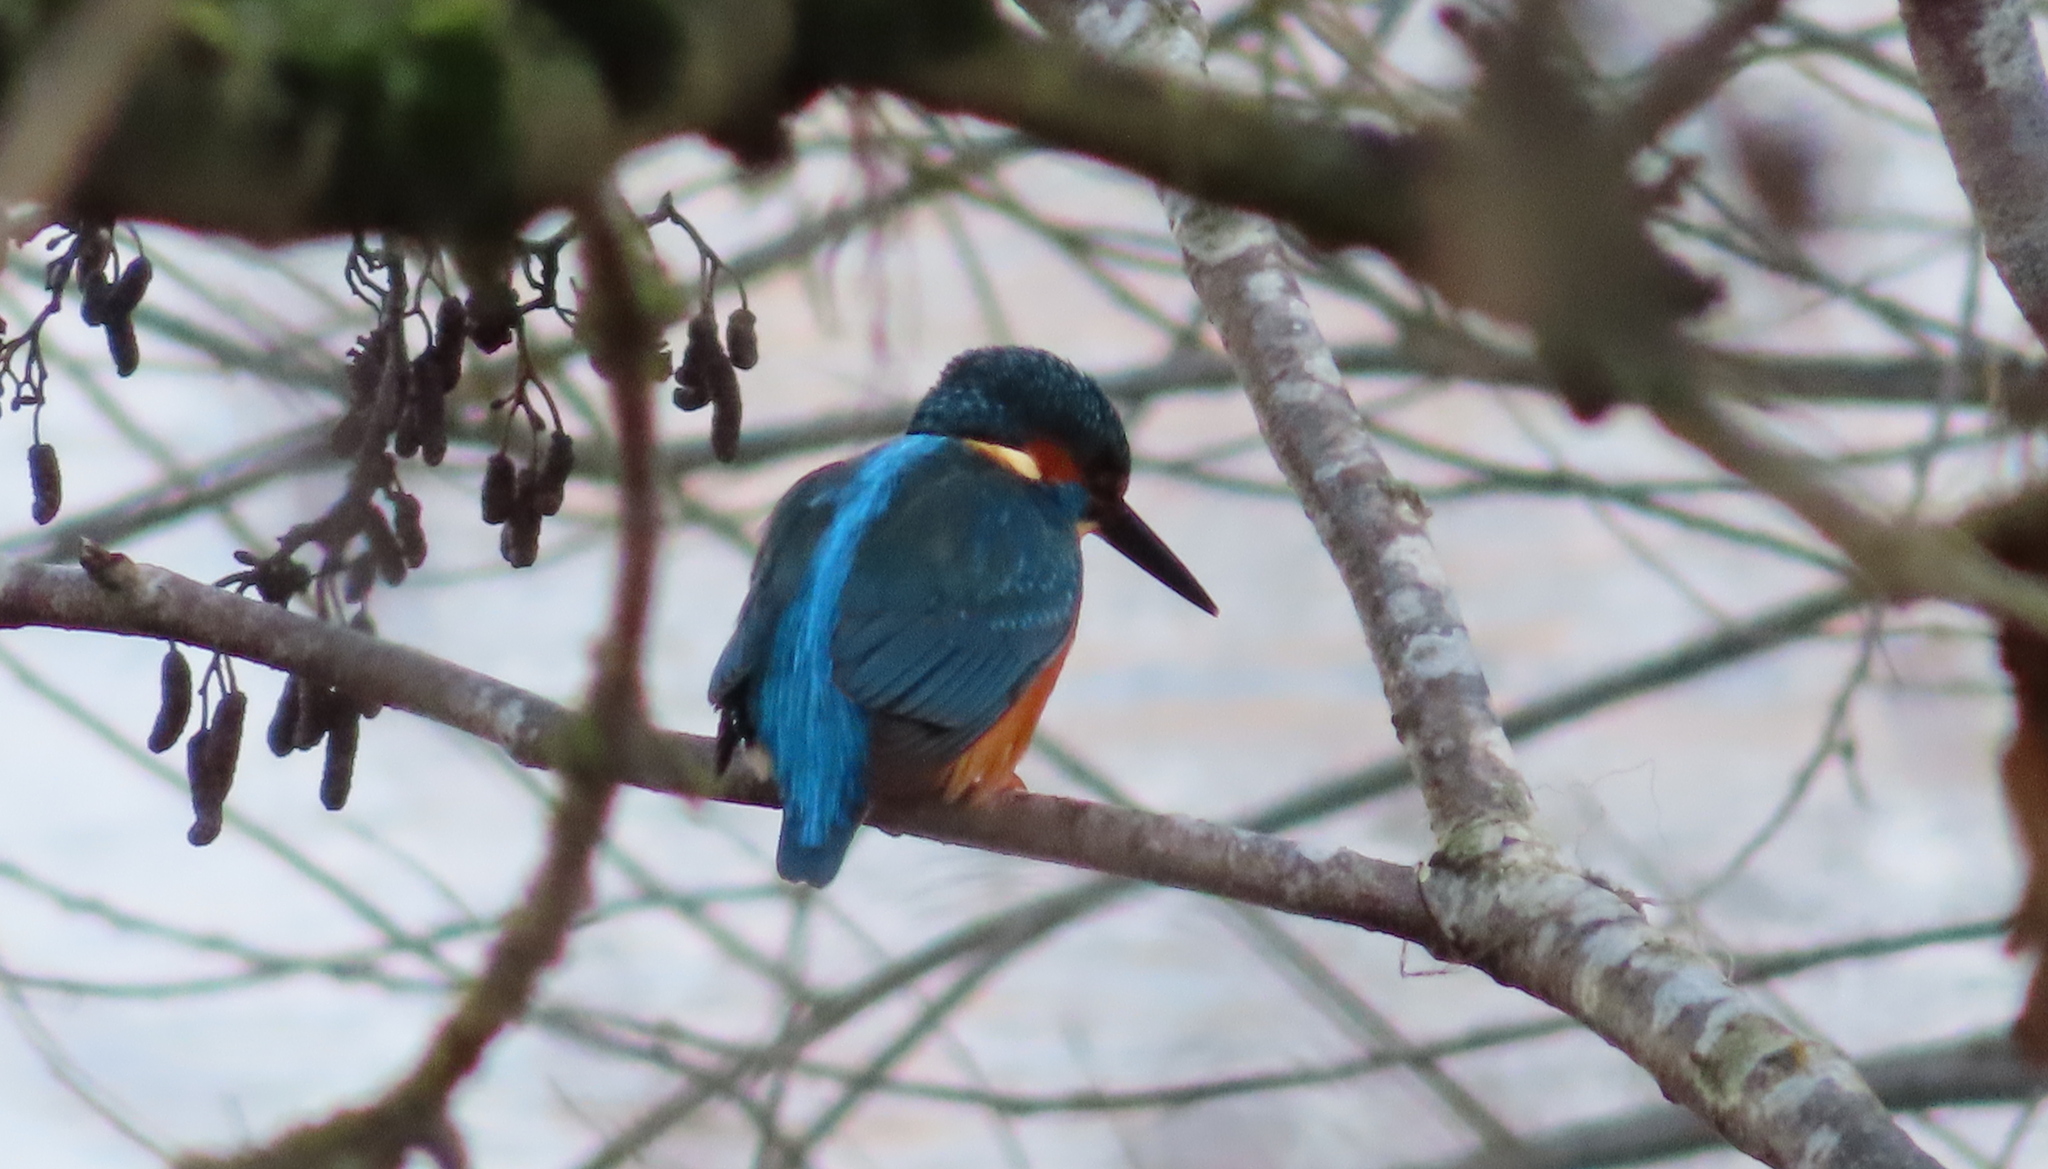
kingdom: Animalia
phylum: Chordata
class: Aves
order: Coraciiformes
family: Alcedinidae
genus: Alcedo
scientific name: Alcedo atthis
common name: Common kingfisher
